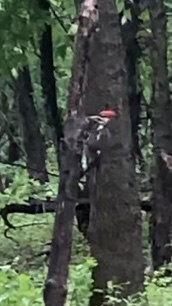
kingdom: Animalia
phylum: Chordata
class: Aves
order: Piciformes
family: Picidae
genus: Dryocopus
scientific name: Dryocopus pileatus
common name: Pileated woodpecker
